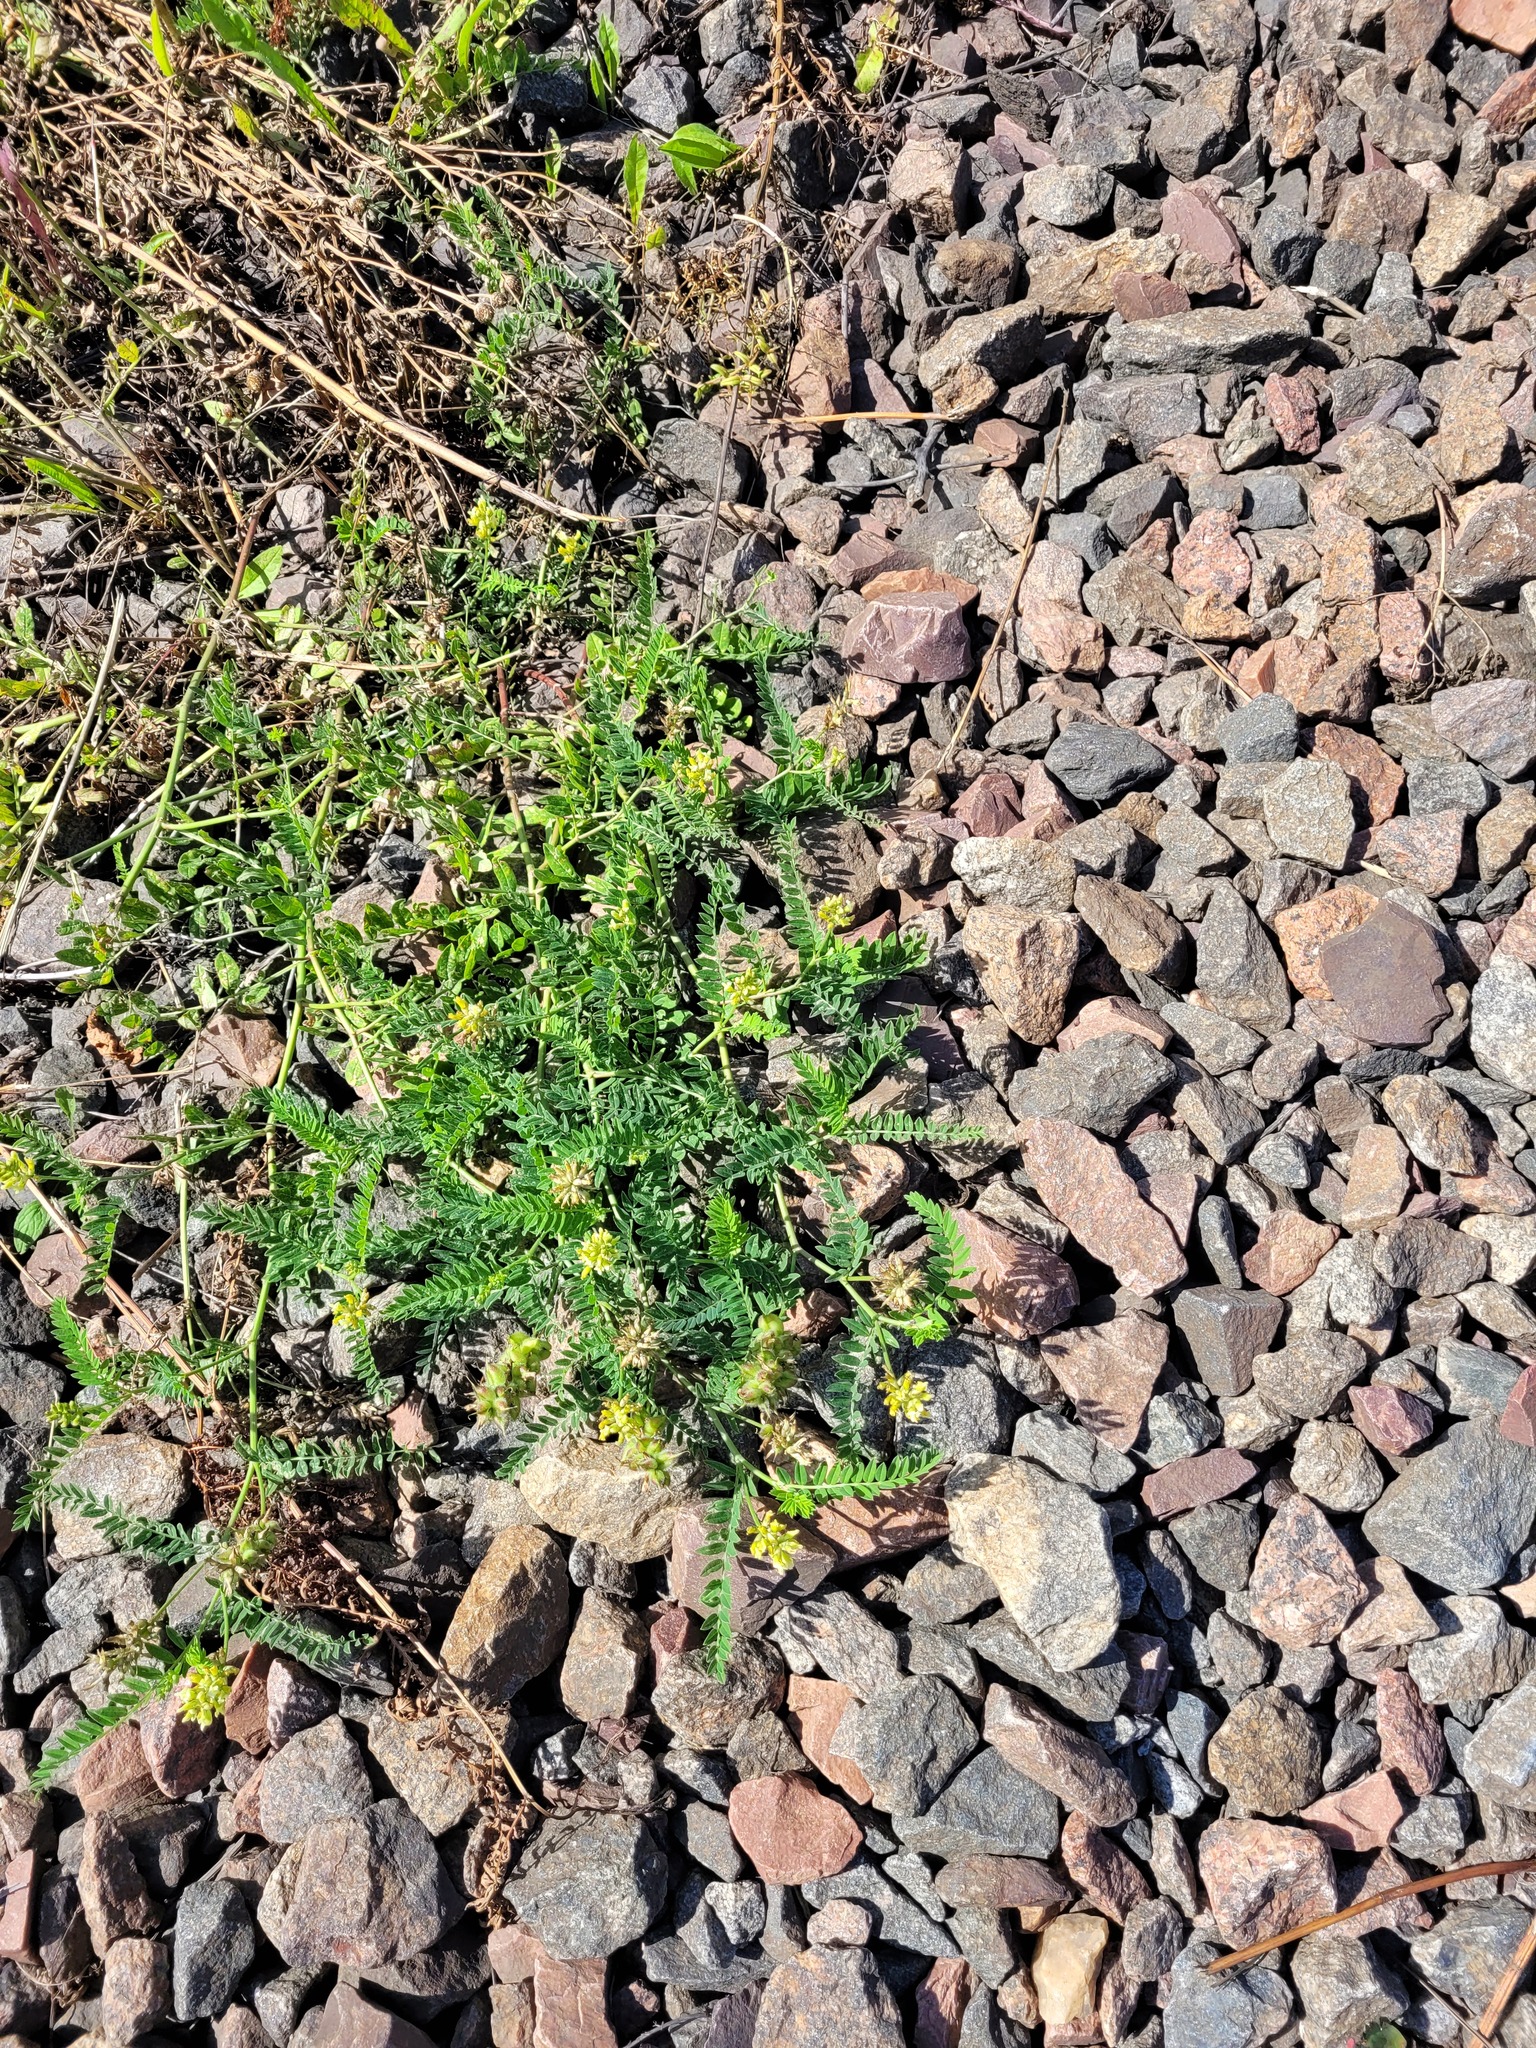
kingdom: Plantae
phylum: Tracheophyta
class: Magnoliopsida
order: Fabales
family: Fabaceae
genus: Astragalus
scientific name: Astragalus cicer
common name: Chick-pea milk-vetch
